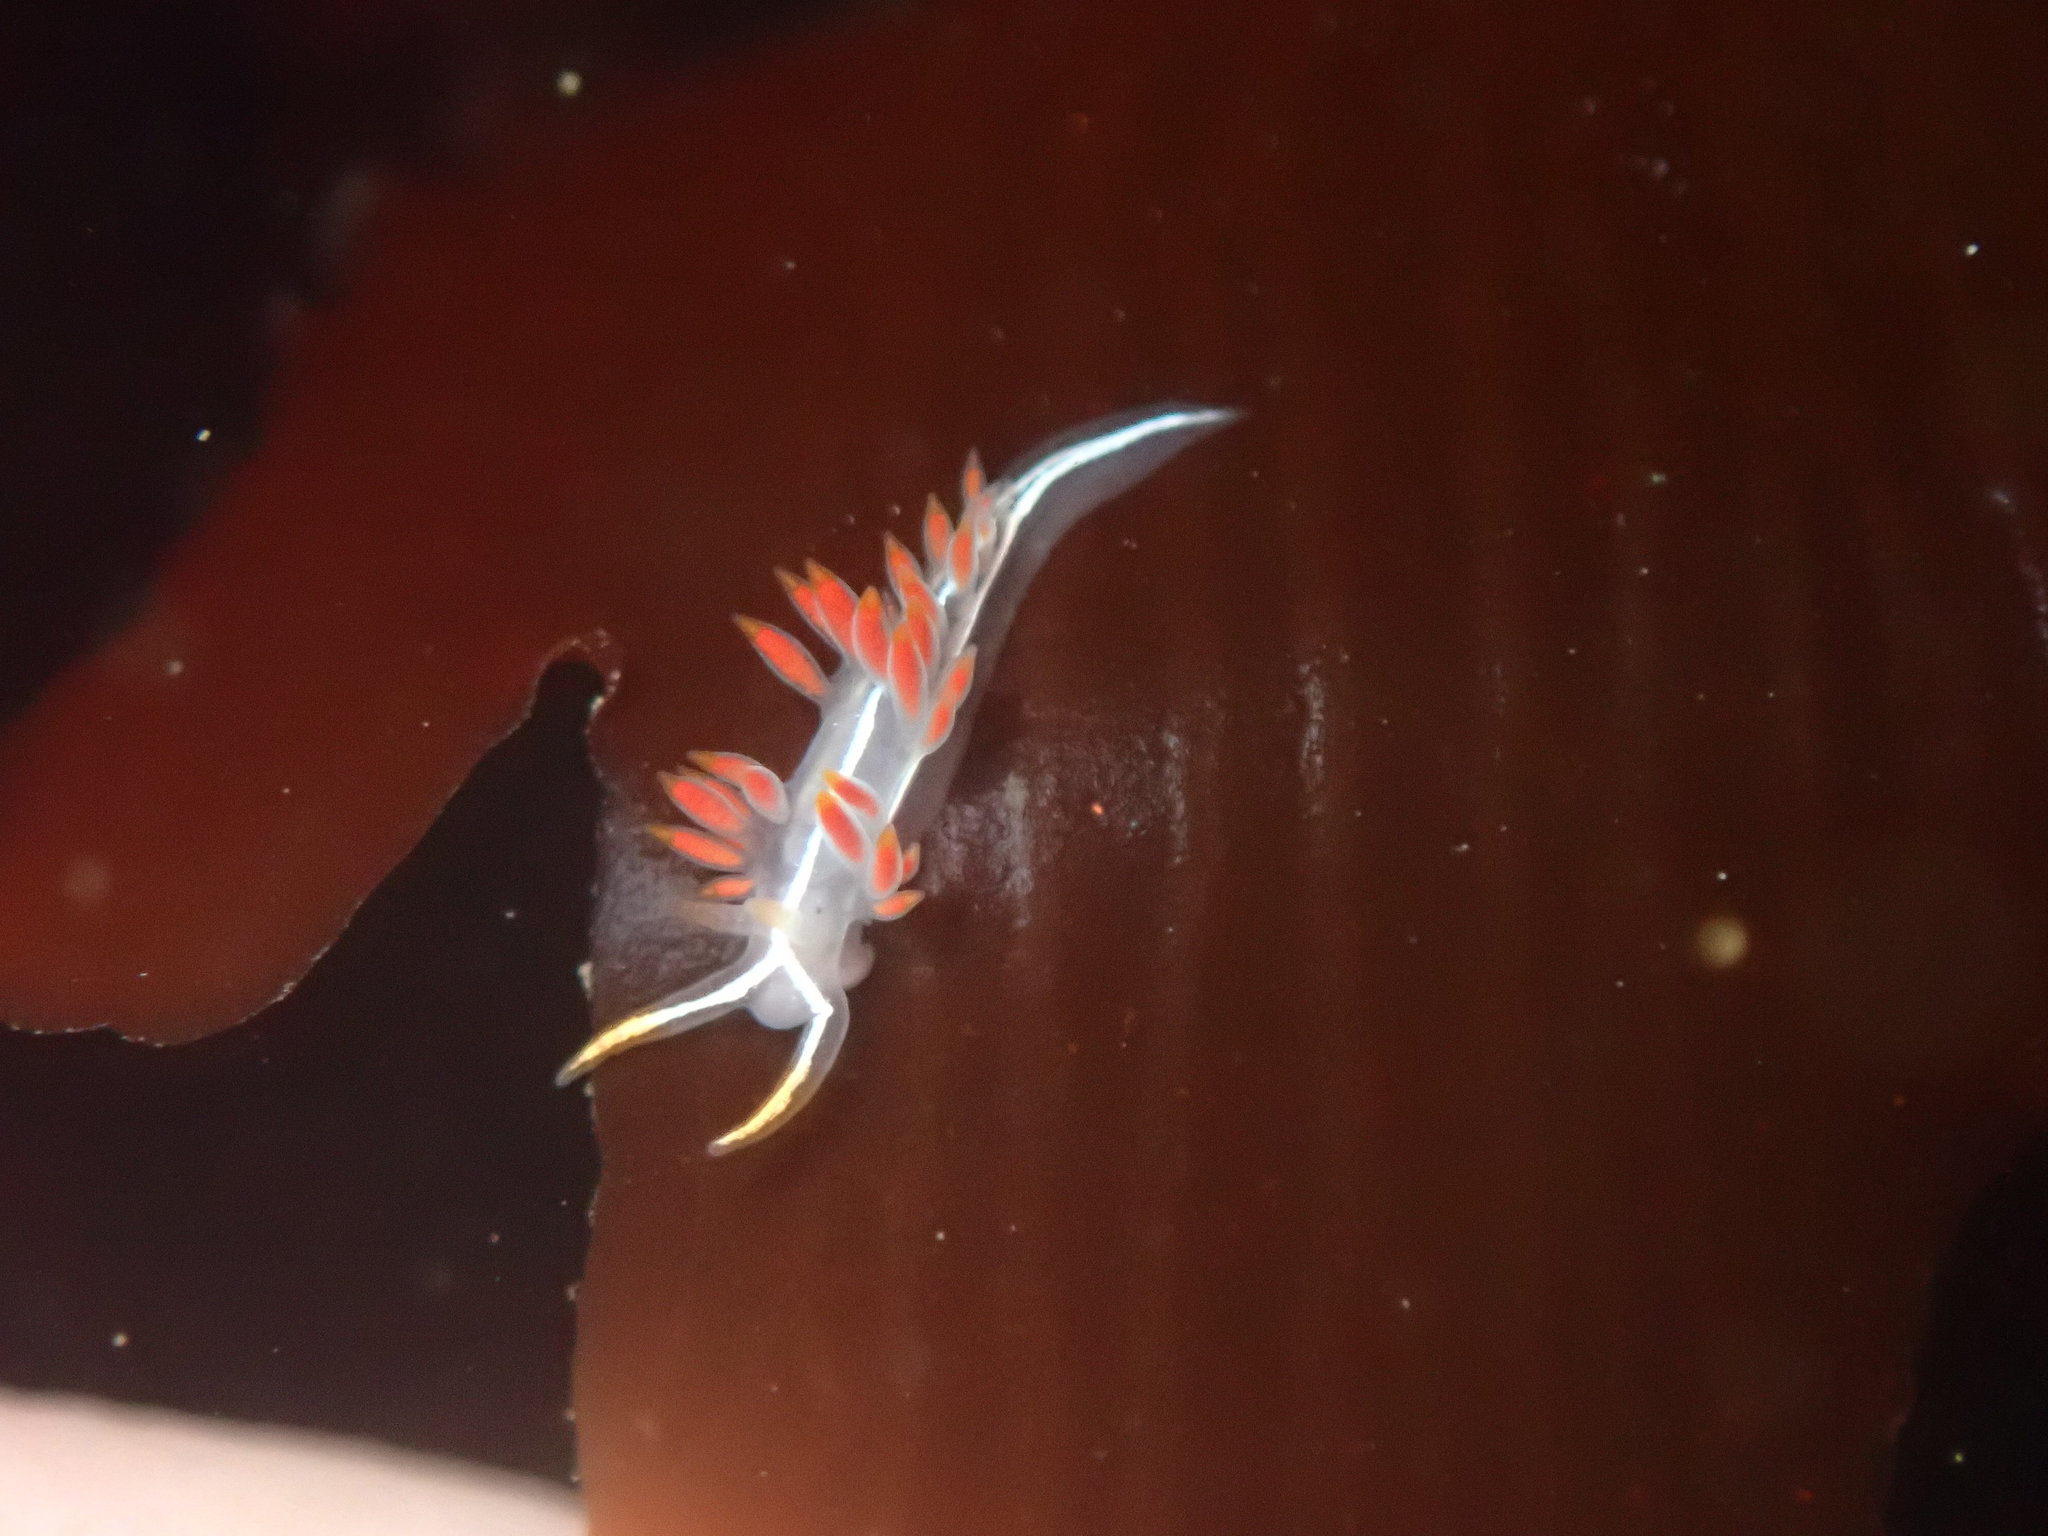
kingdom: Animalia
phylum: Mollusca
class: Gastropoda
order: Nudibranchia
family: Coryphellidae
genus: Coryphella
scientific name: Coryphella trilineata
